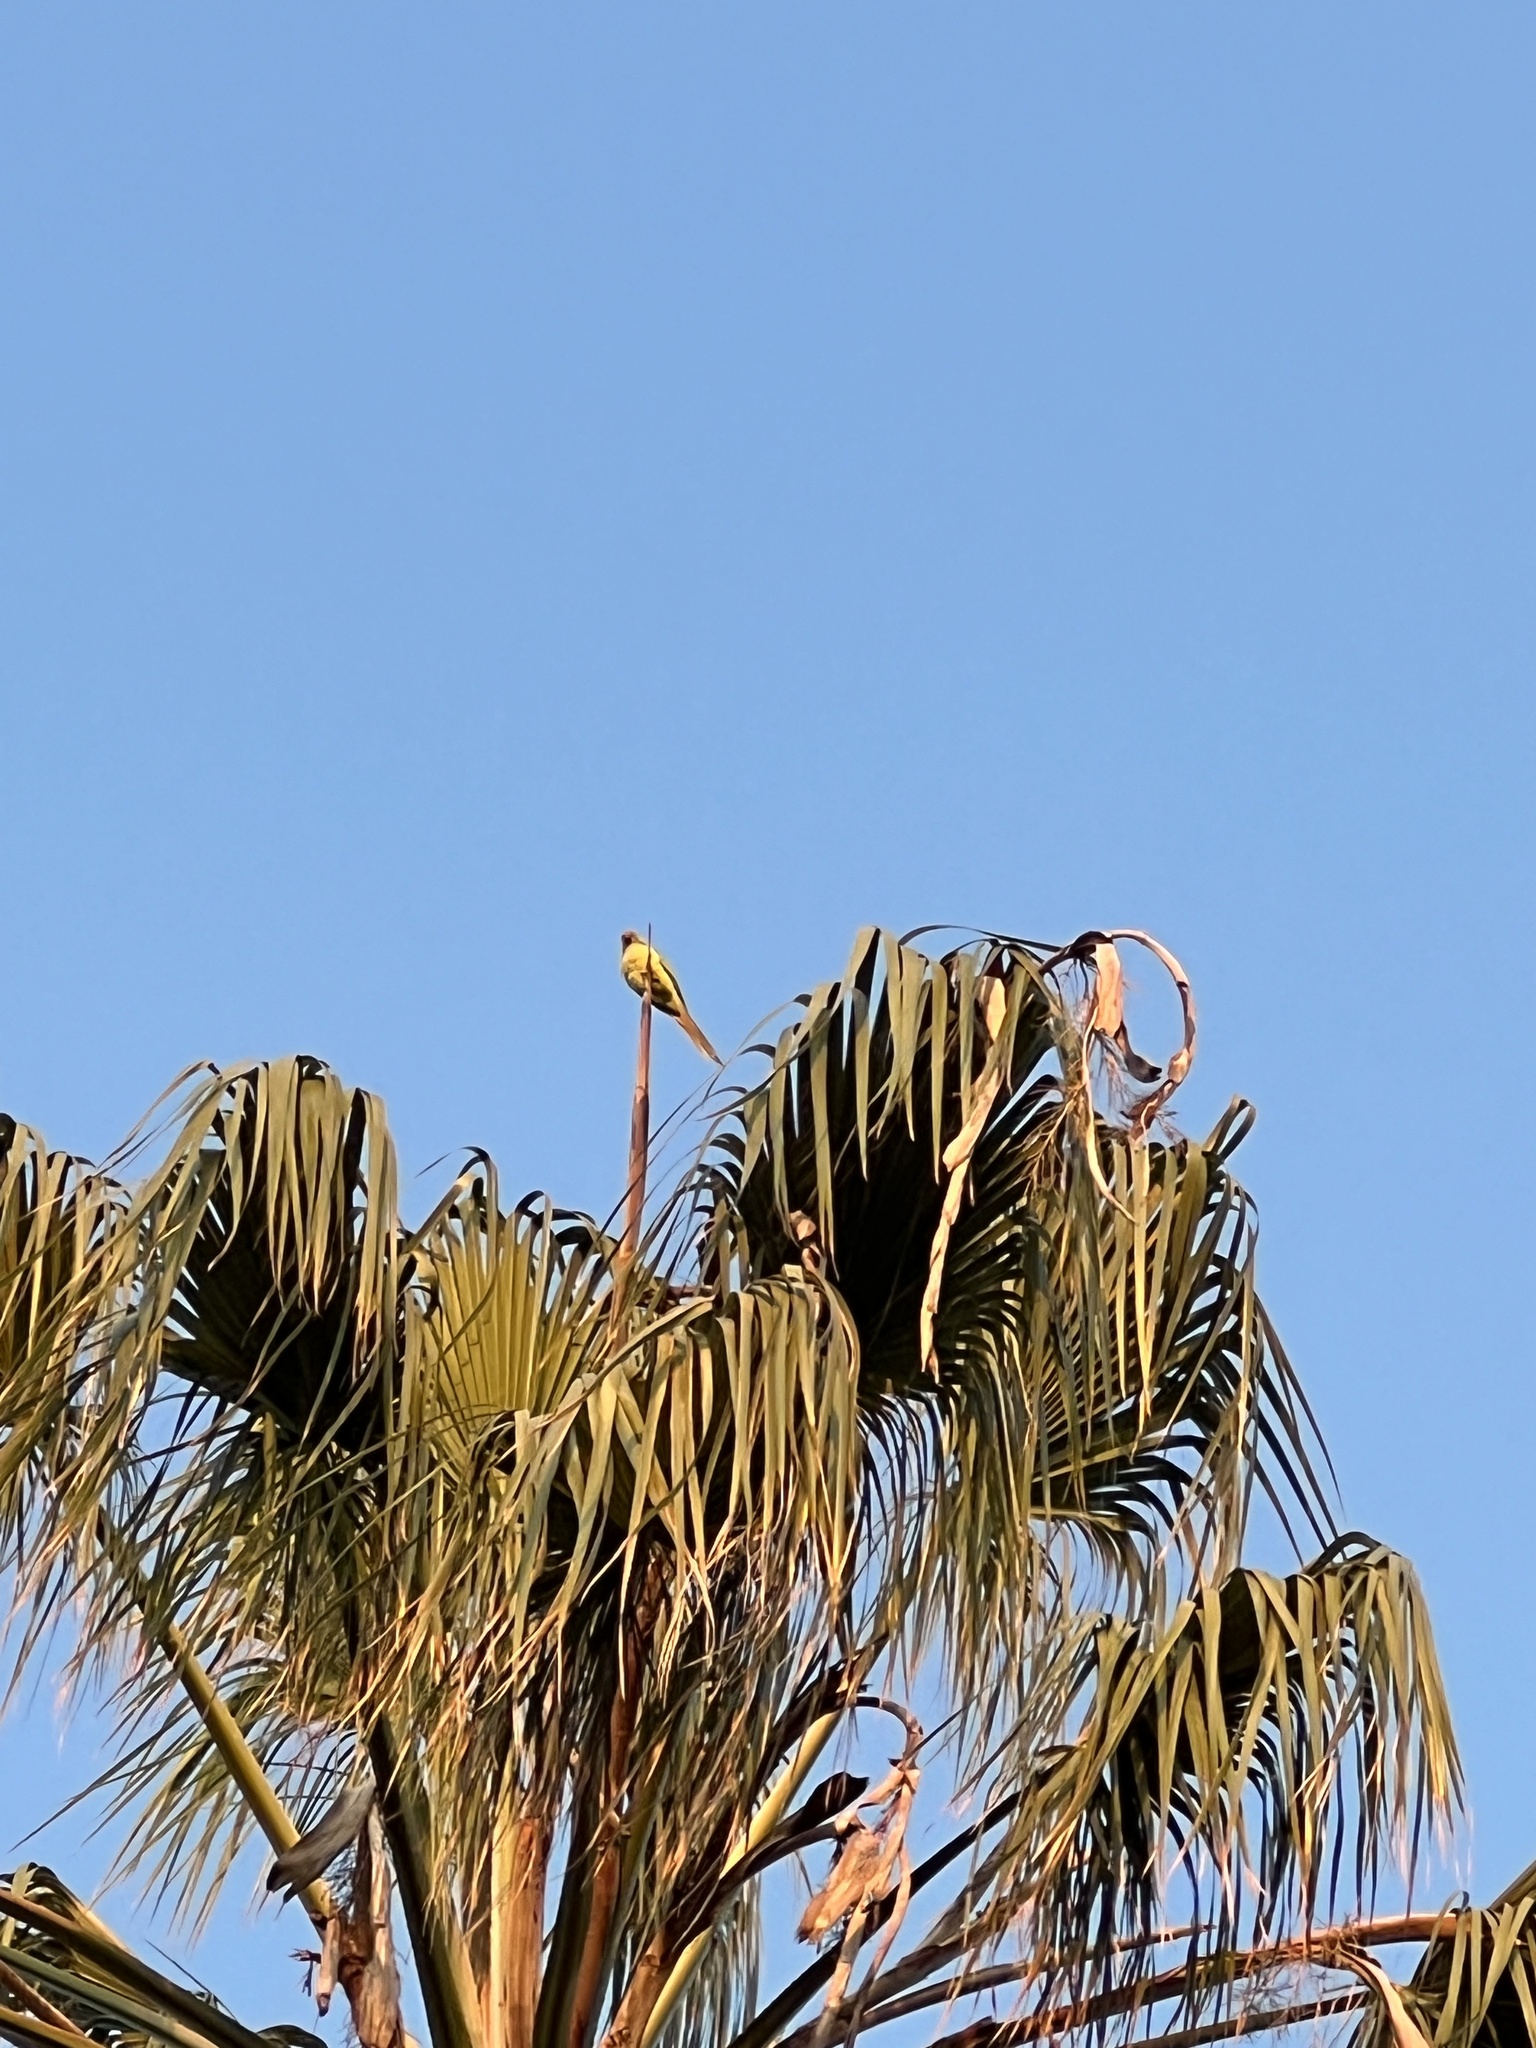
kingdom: Animalia
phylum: Chordata
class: Aves
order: Psittaciformes
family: Psittacidae
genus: Psittacula
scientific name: Psittacula krameri
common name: Rose-ringed parakeet
